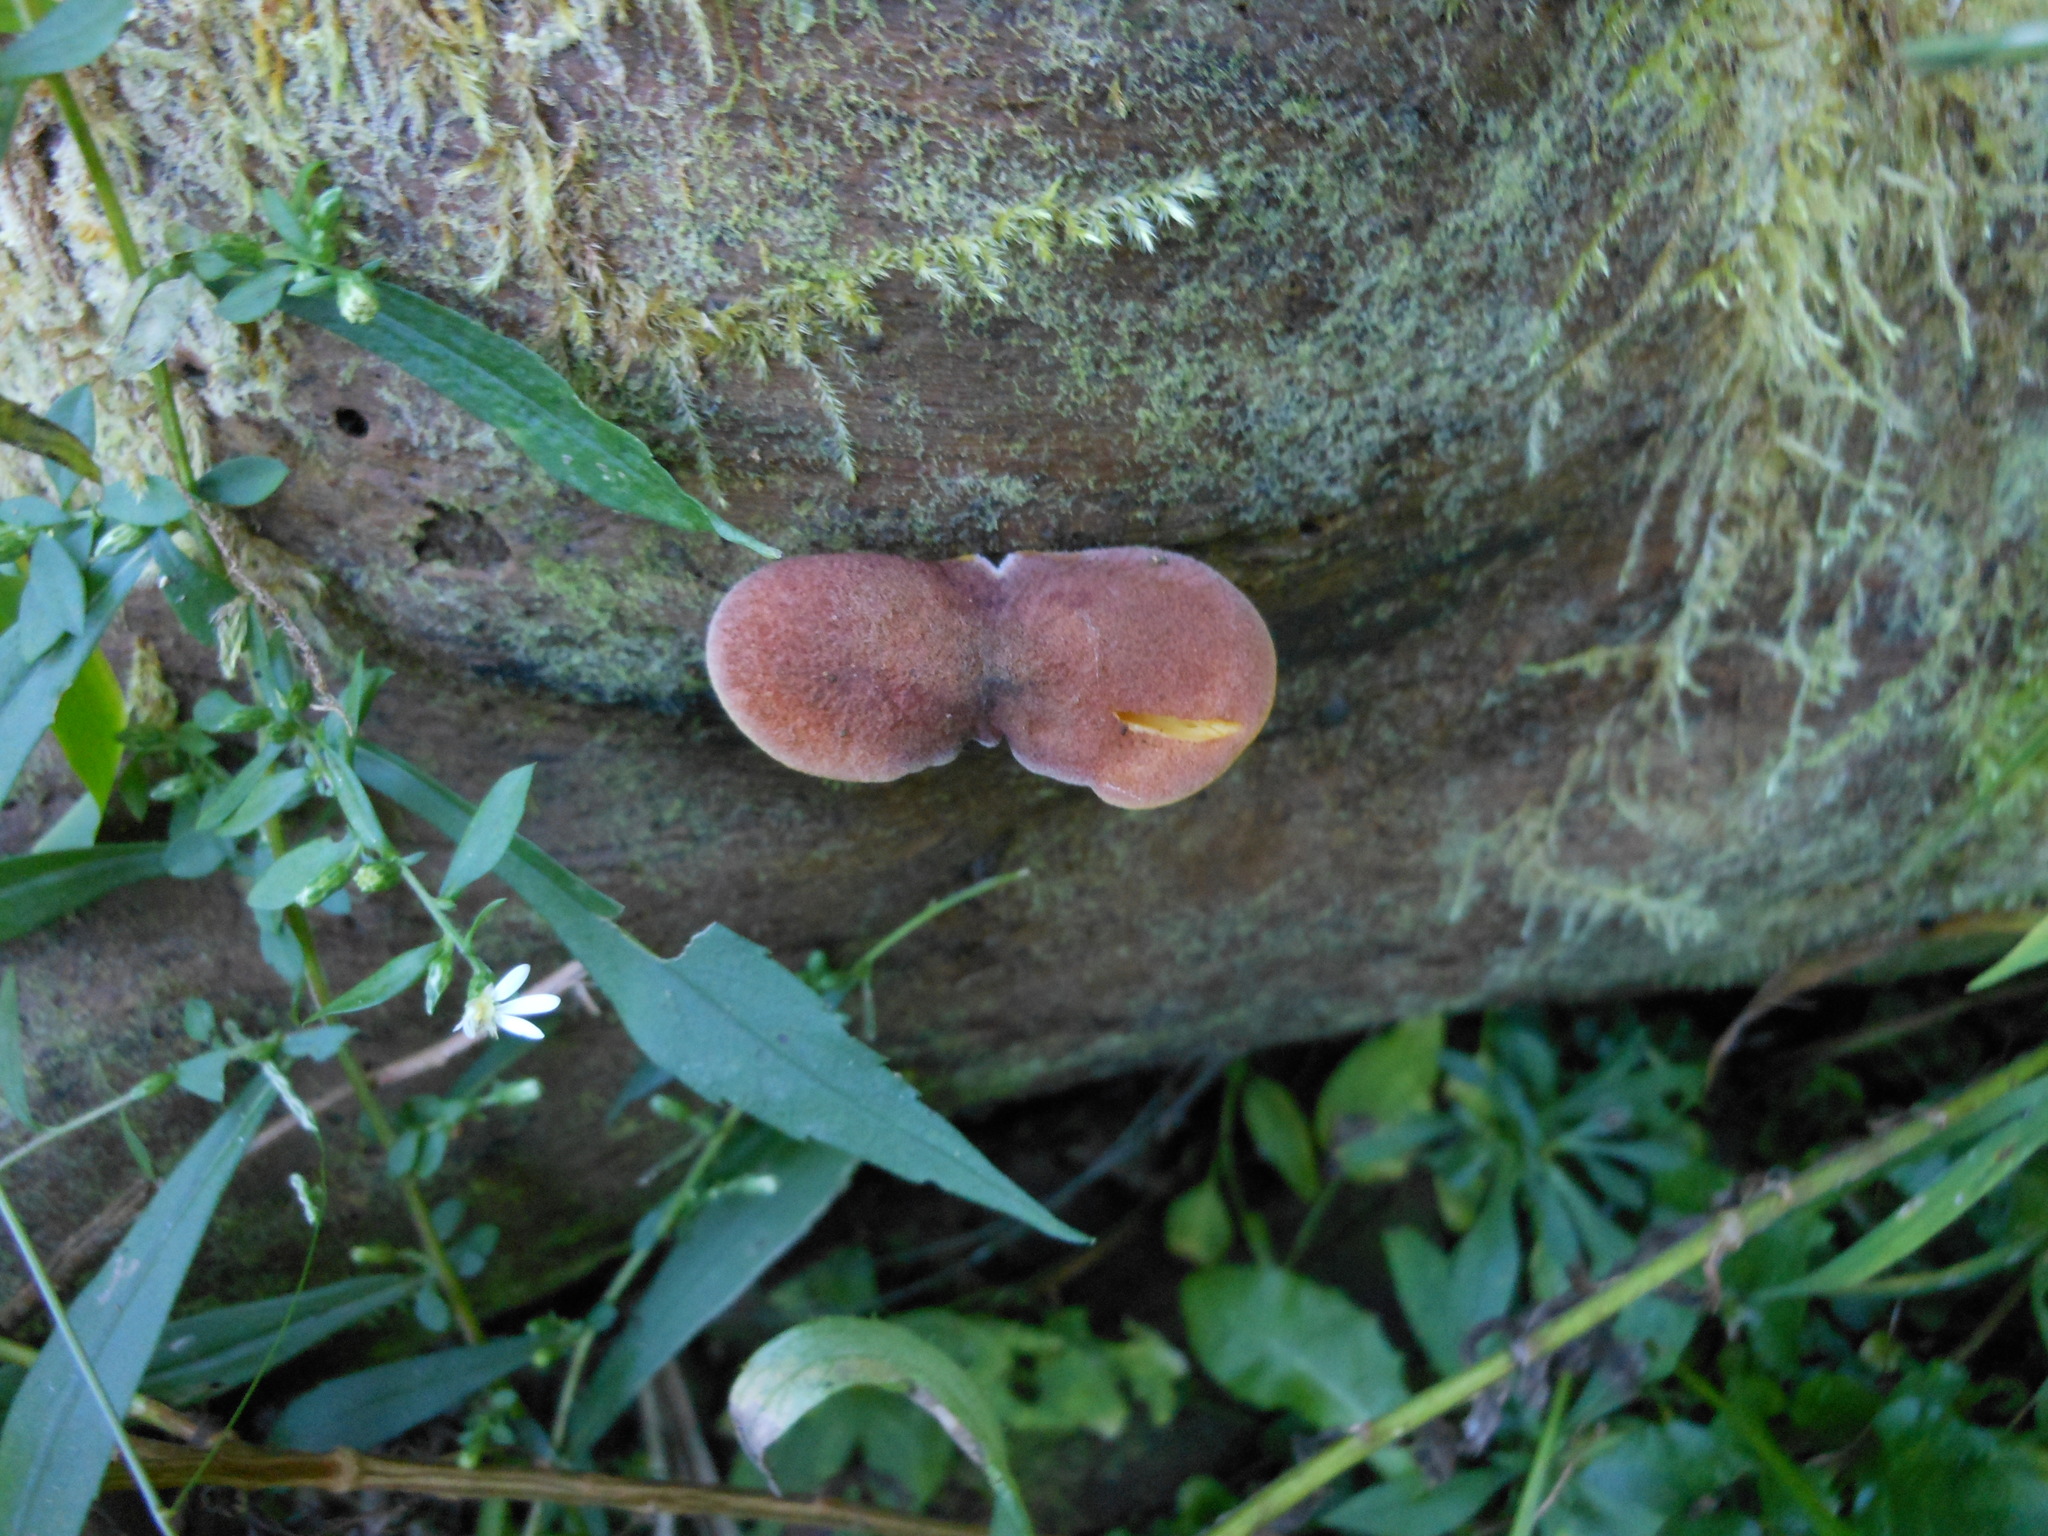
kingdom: Fungi
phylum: Basidiomycota
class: Agaricomycetes
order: Agaricales
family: Tricholomataceae
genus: Tricholomopsis
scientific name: Tricholomopsis rutilans
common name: Plums and custard
